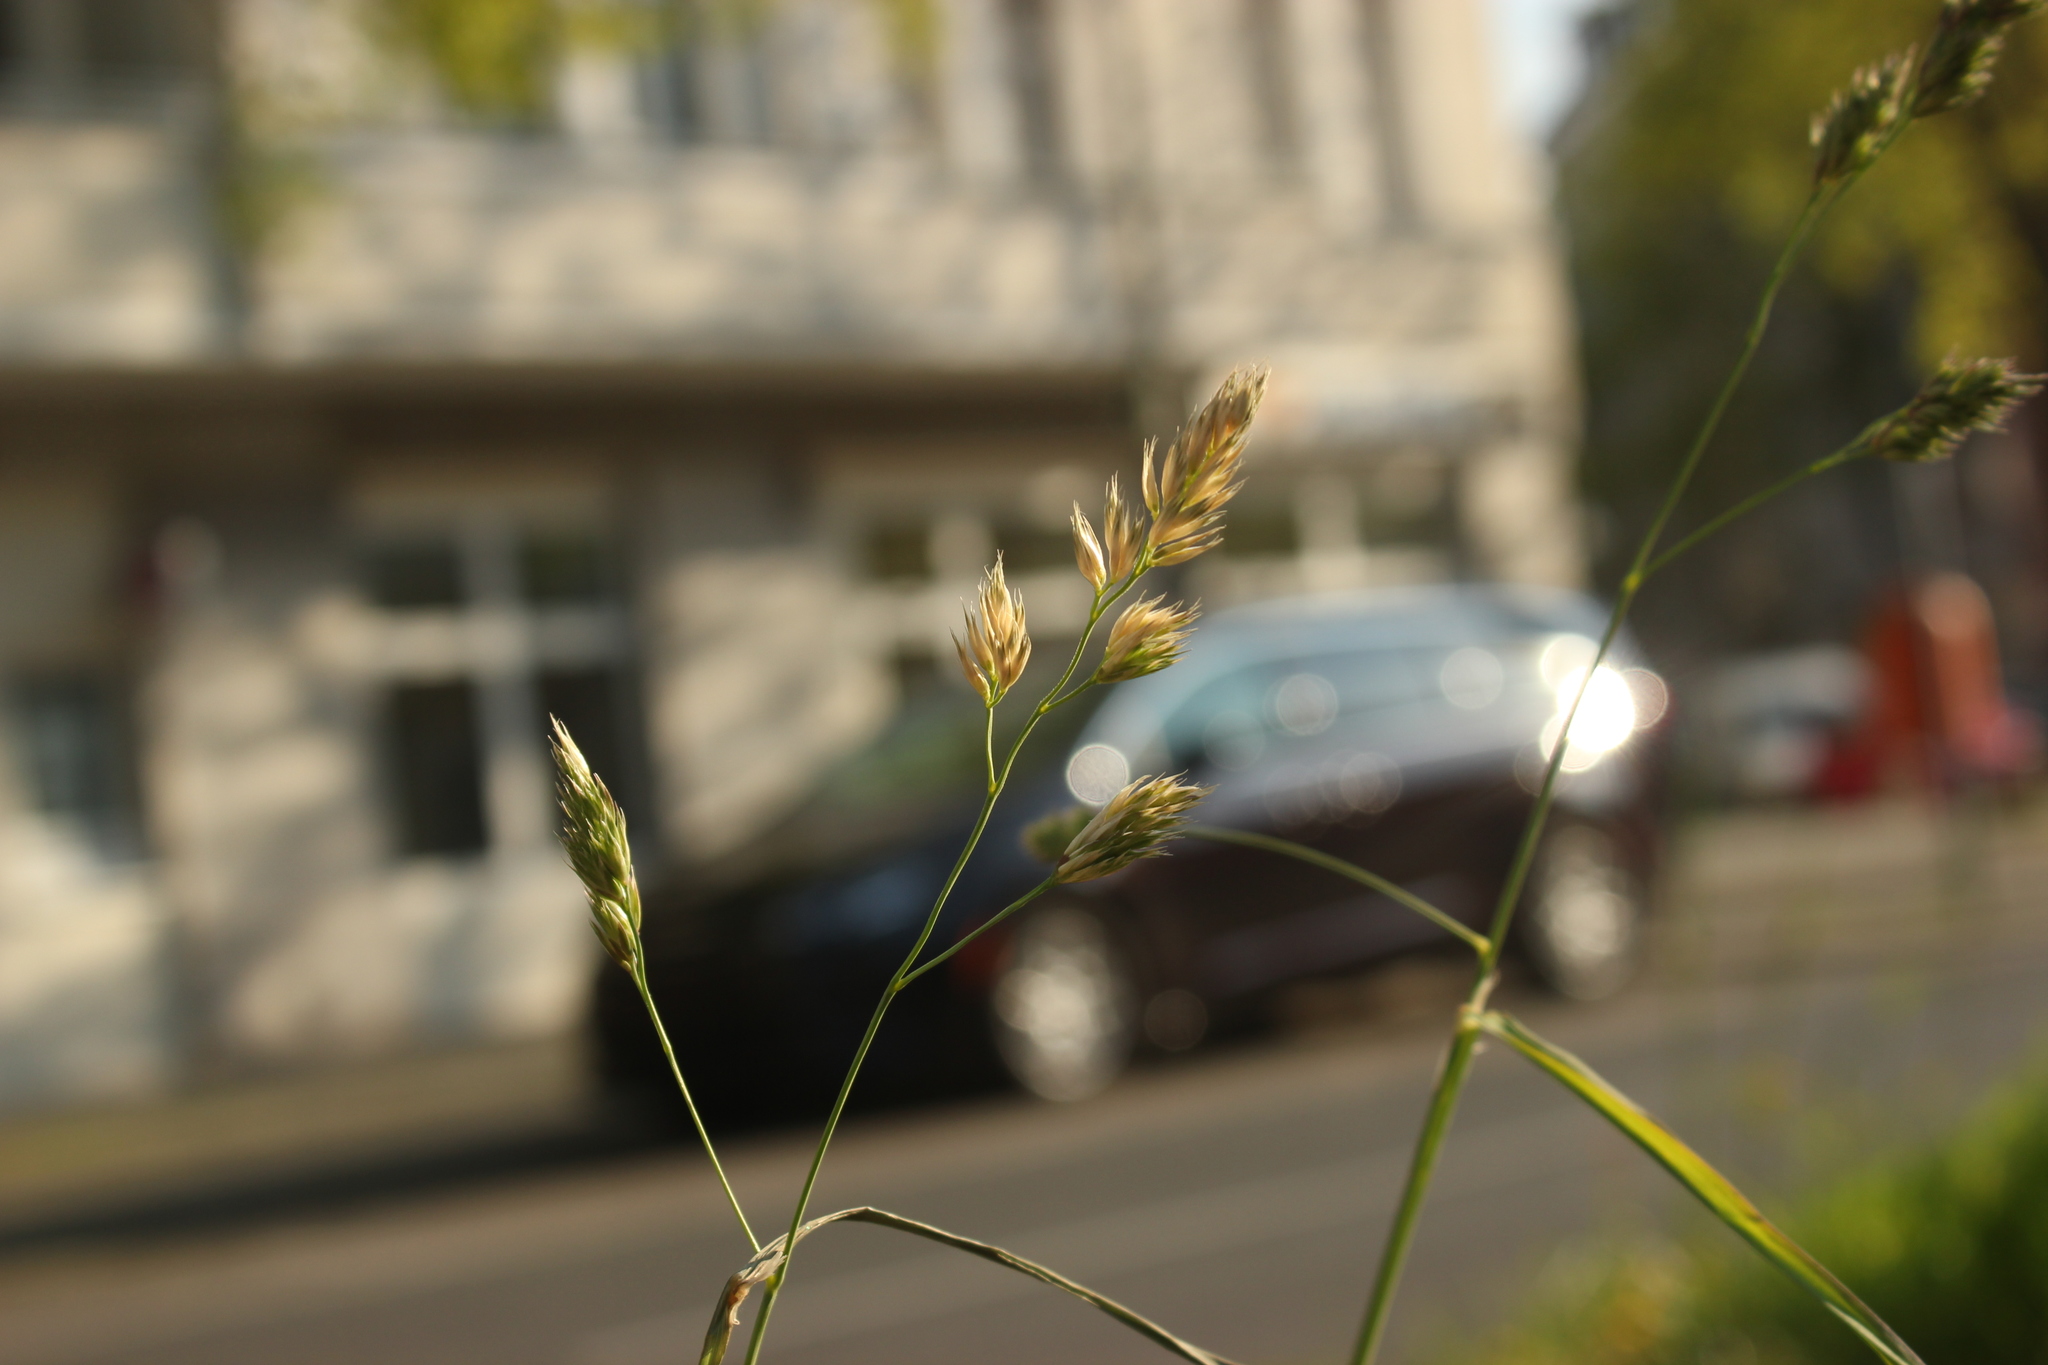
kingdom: Plantae
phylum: Tracheophyta
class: Liliopsida
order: Poales
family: Poaceae
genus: Dactylis
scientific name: Dactylis glomerata
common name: Orchardgrass
